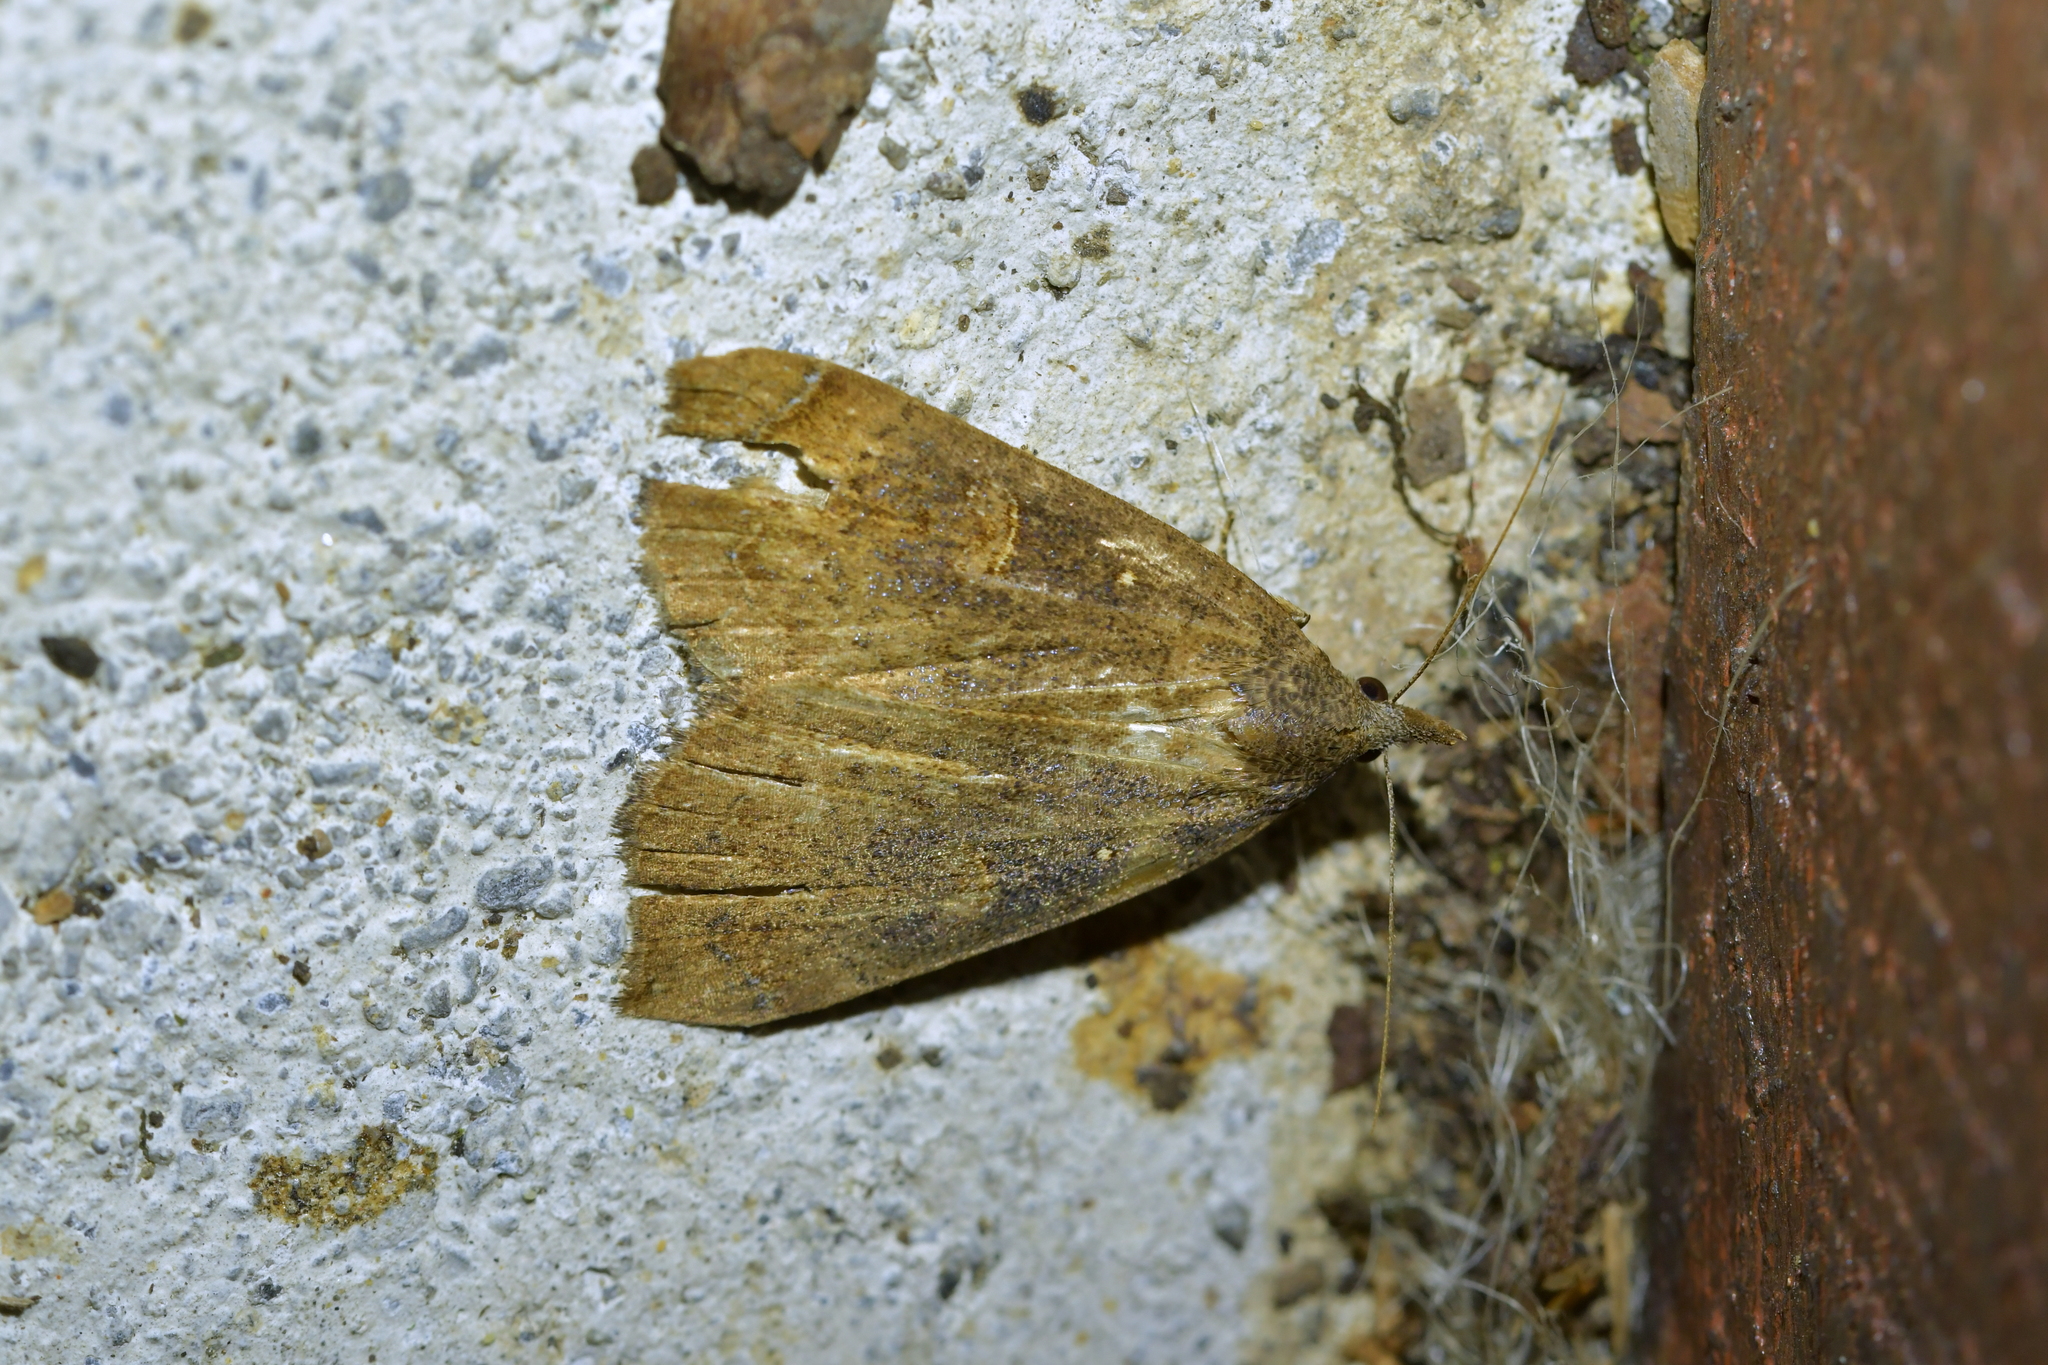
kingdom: Animalia
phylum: Arthropoda
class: Insecta
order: Lepidoptera
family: Erebidae
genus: Rhapsa
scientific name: Rhapsa scotosialis
